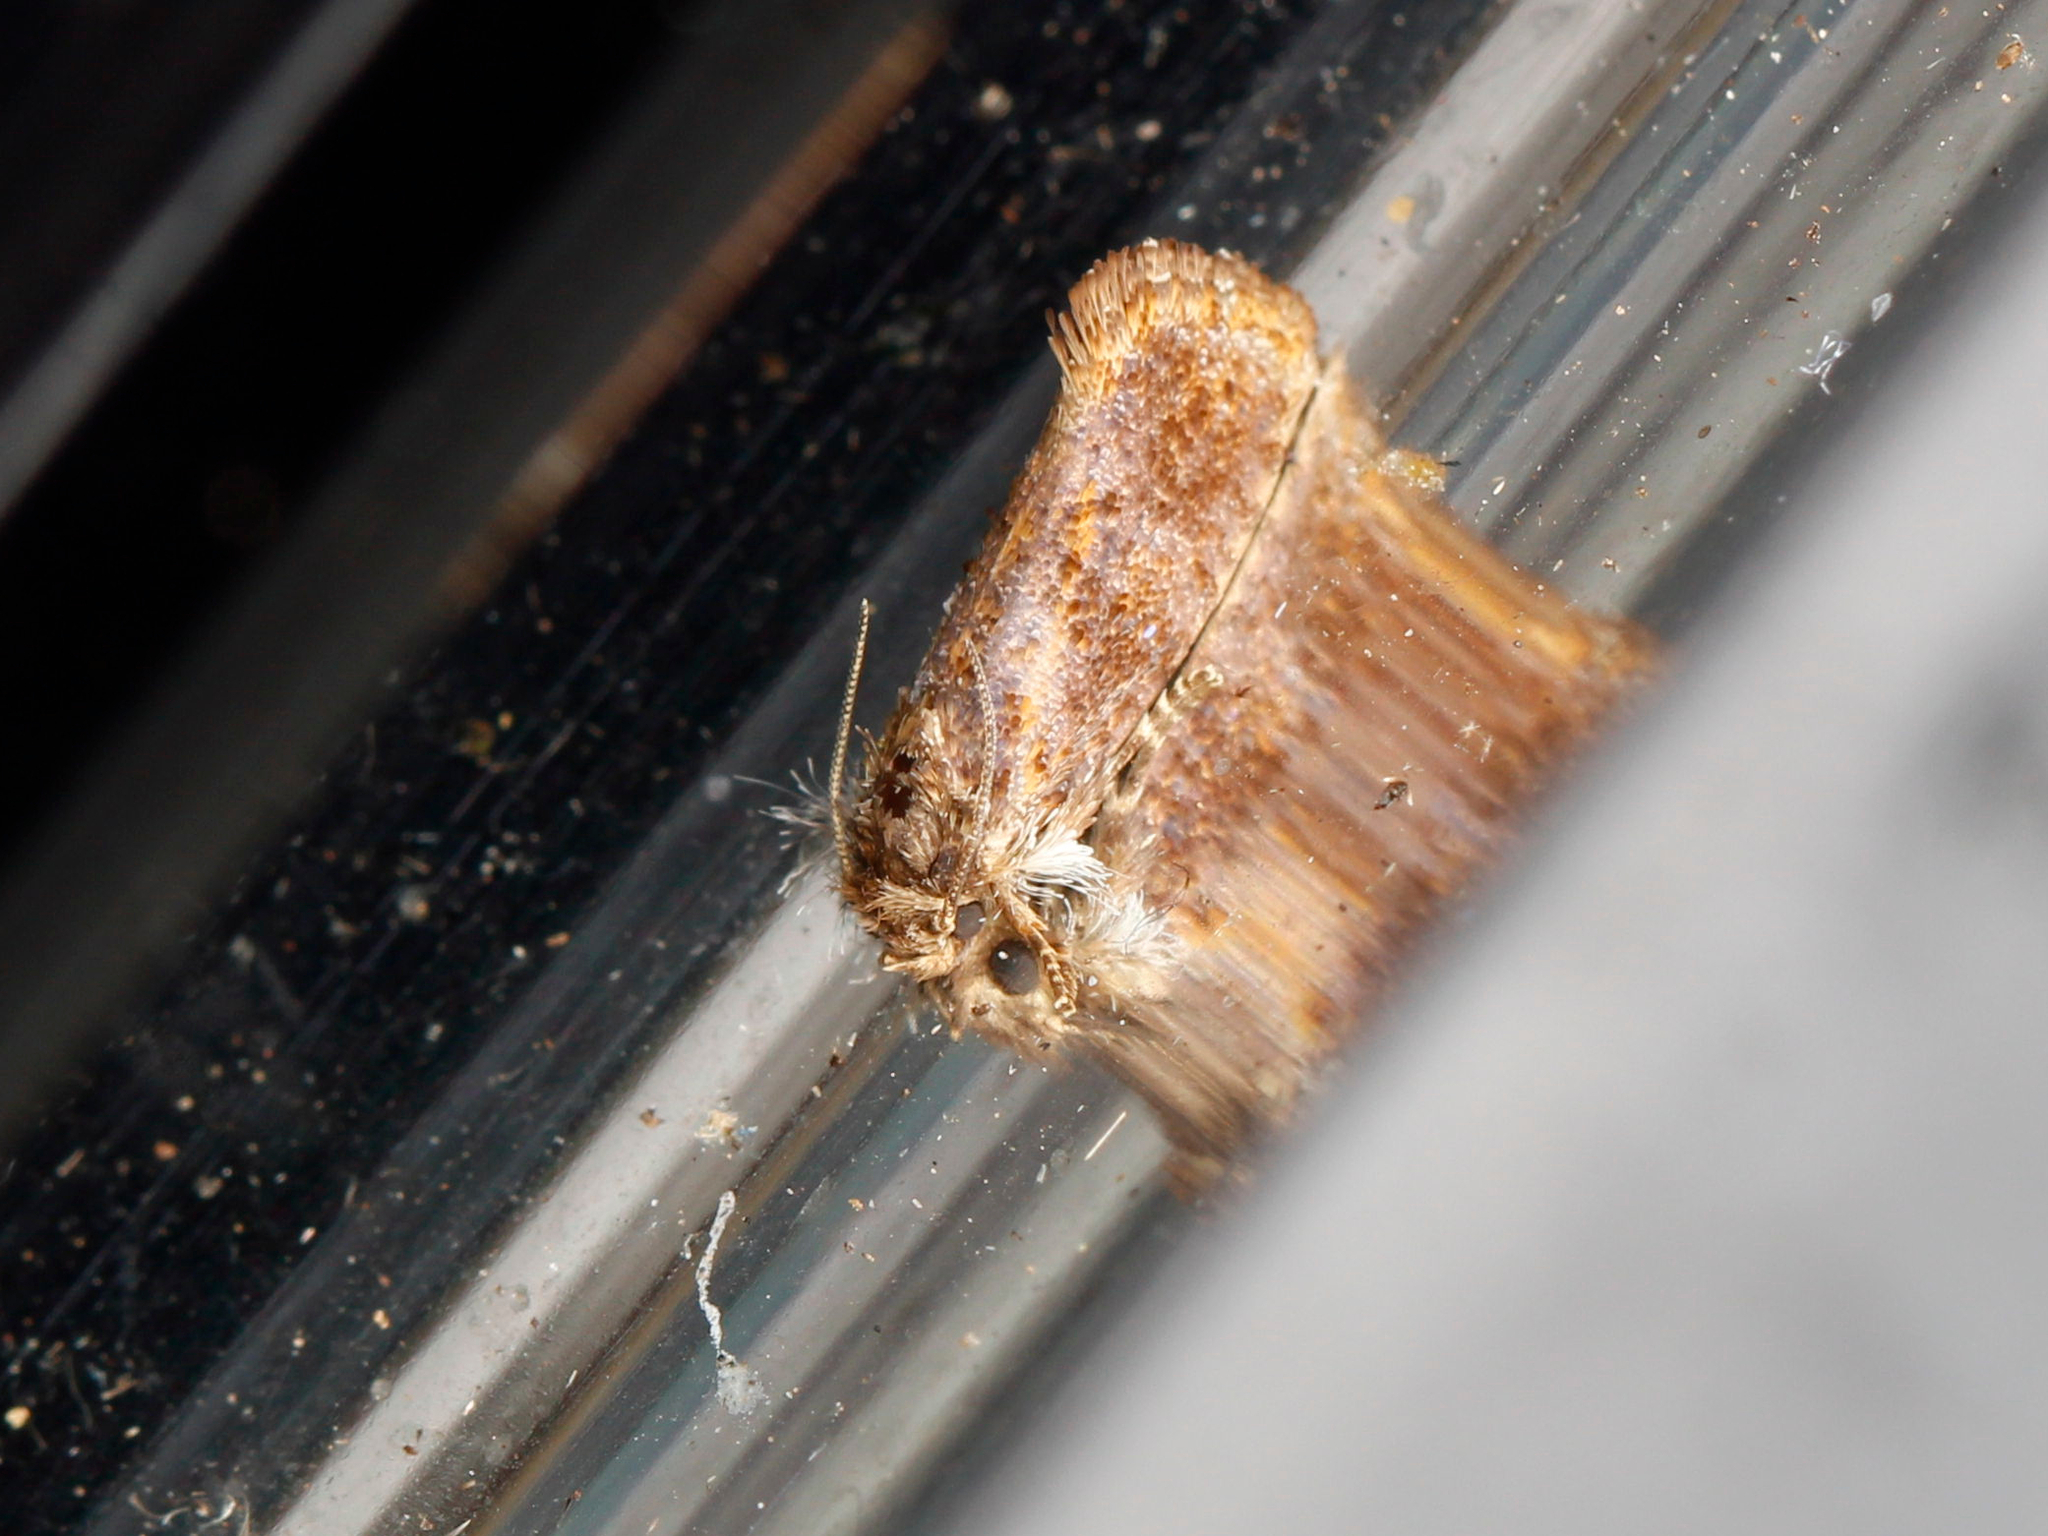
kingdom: Animalia
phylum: Arthropoda
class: Insecta
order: Lepidoptera
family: Tineidae
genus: Acrolophus
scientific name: Acrolophus panamae
